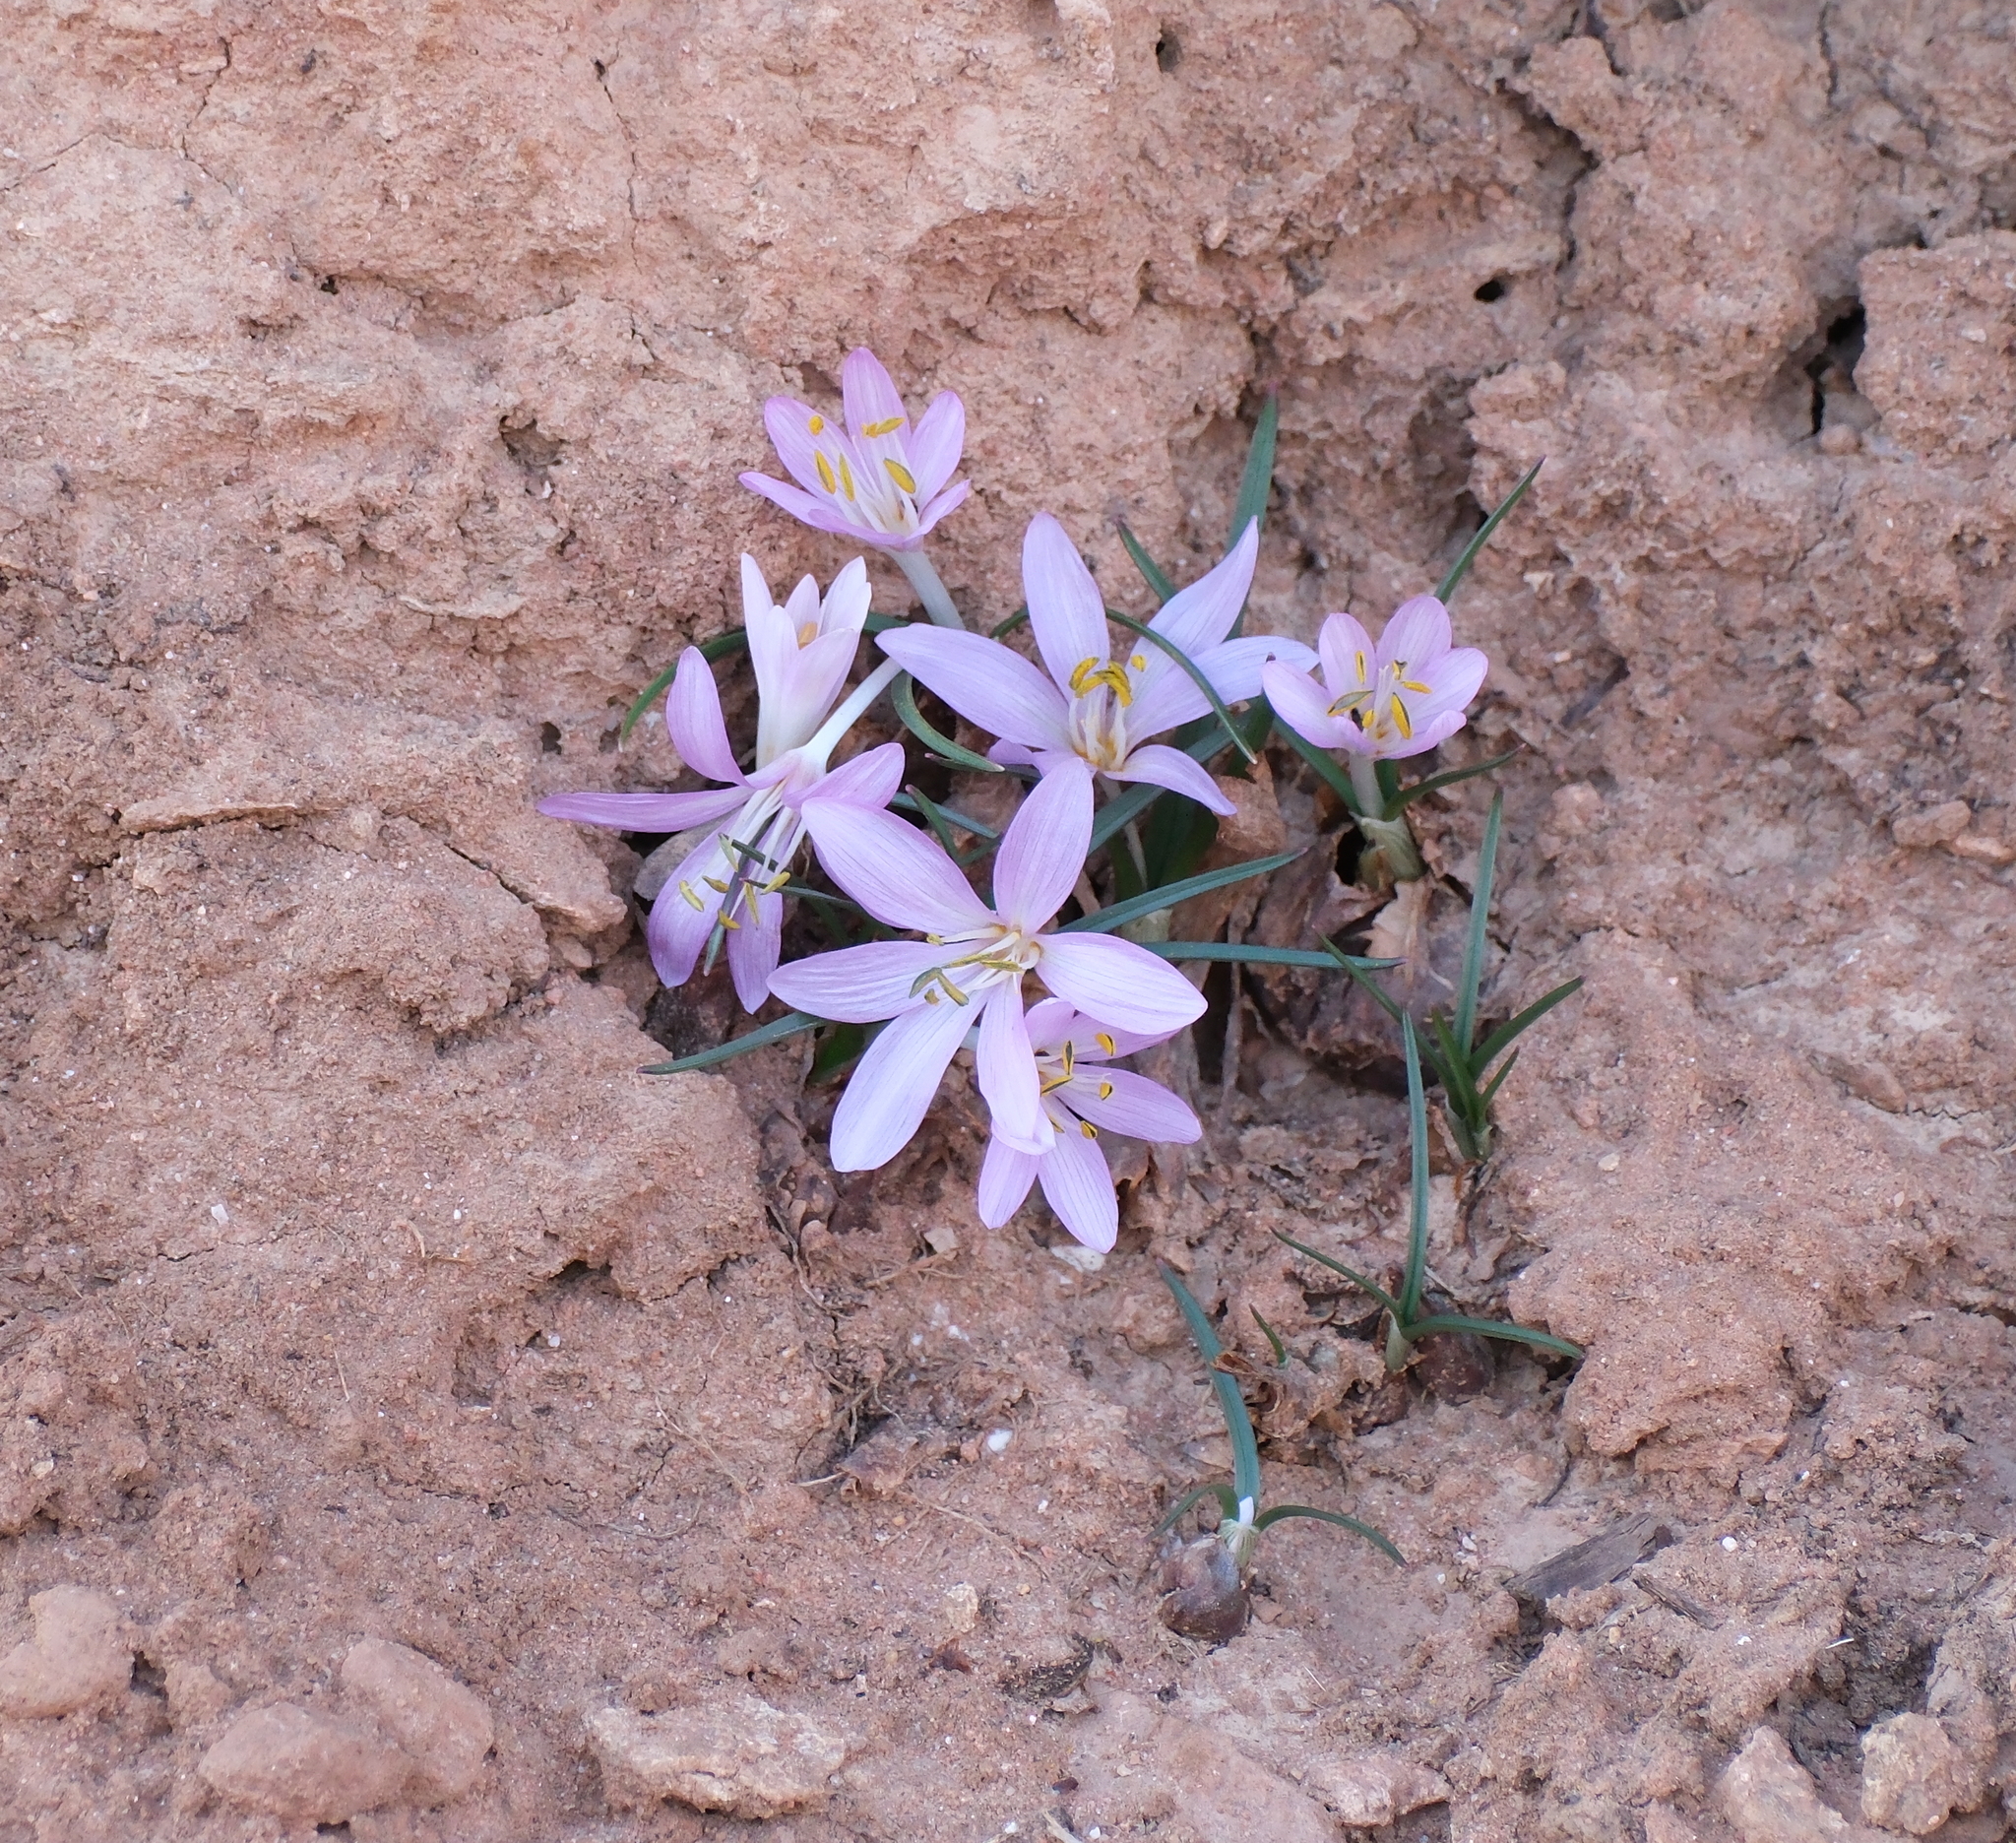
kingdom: Plantae
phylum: Tracheophyta
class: Liliopsida
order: Liliales
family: Colchicaceae
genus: Colchicum
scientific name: Colchicum stevenii
